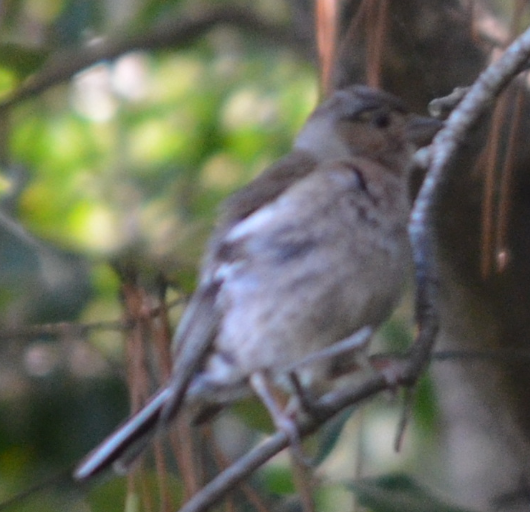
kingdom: Animalia
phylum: Chordata
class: Aves
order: Passeriformes
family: Fringillidae
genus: Fringilla
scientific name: Fringilla coelebs
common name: Common chaffinch
